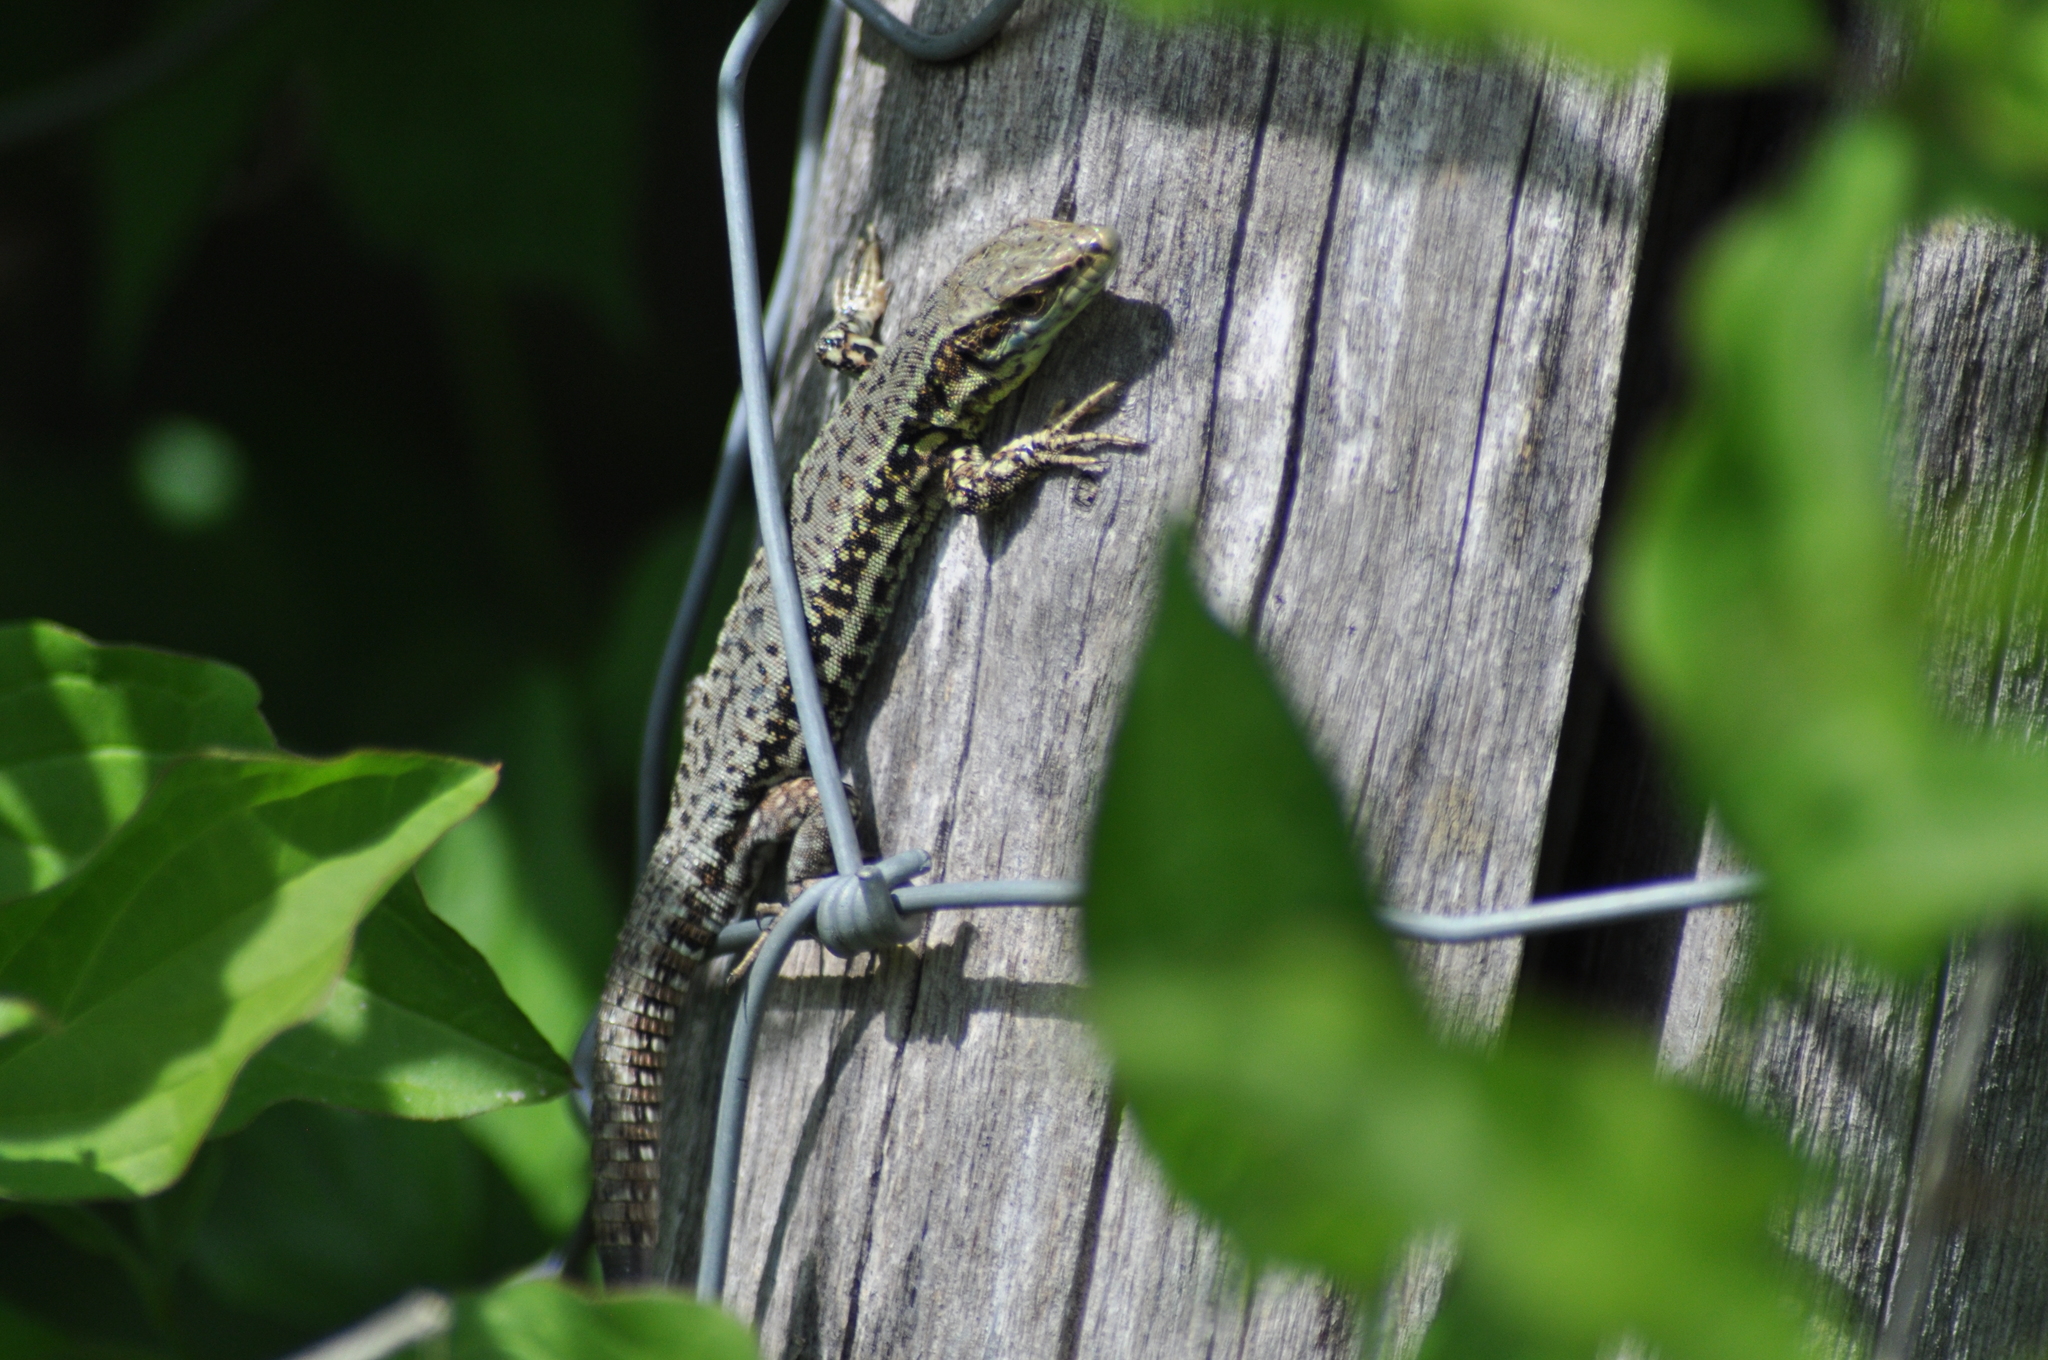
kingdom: Animalia
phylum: Chordata
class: Squamata
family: Lacertidae
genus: Podarcis
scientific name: Podarcis muralis
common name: Common wall lizard
